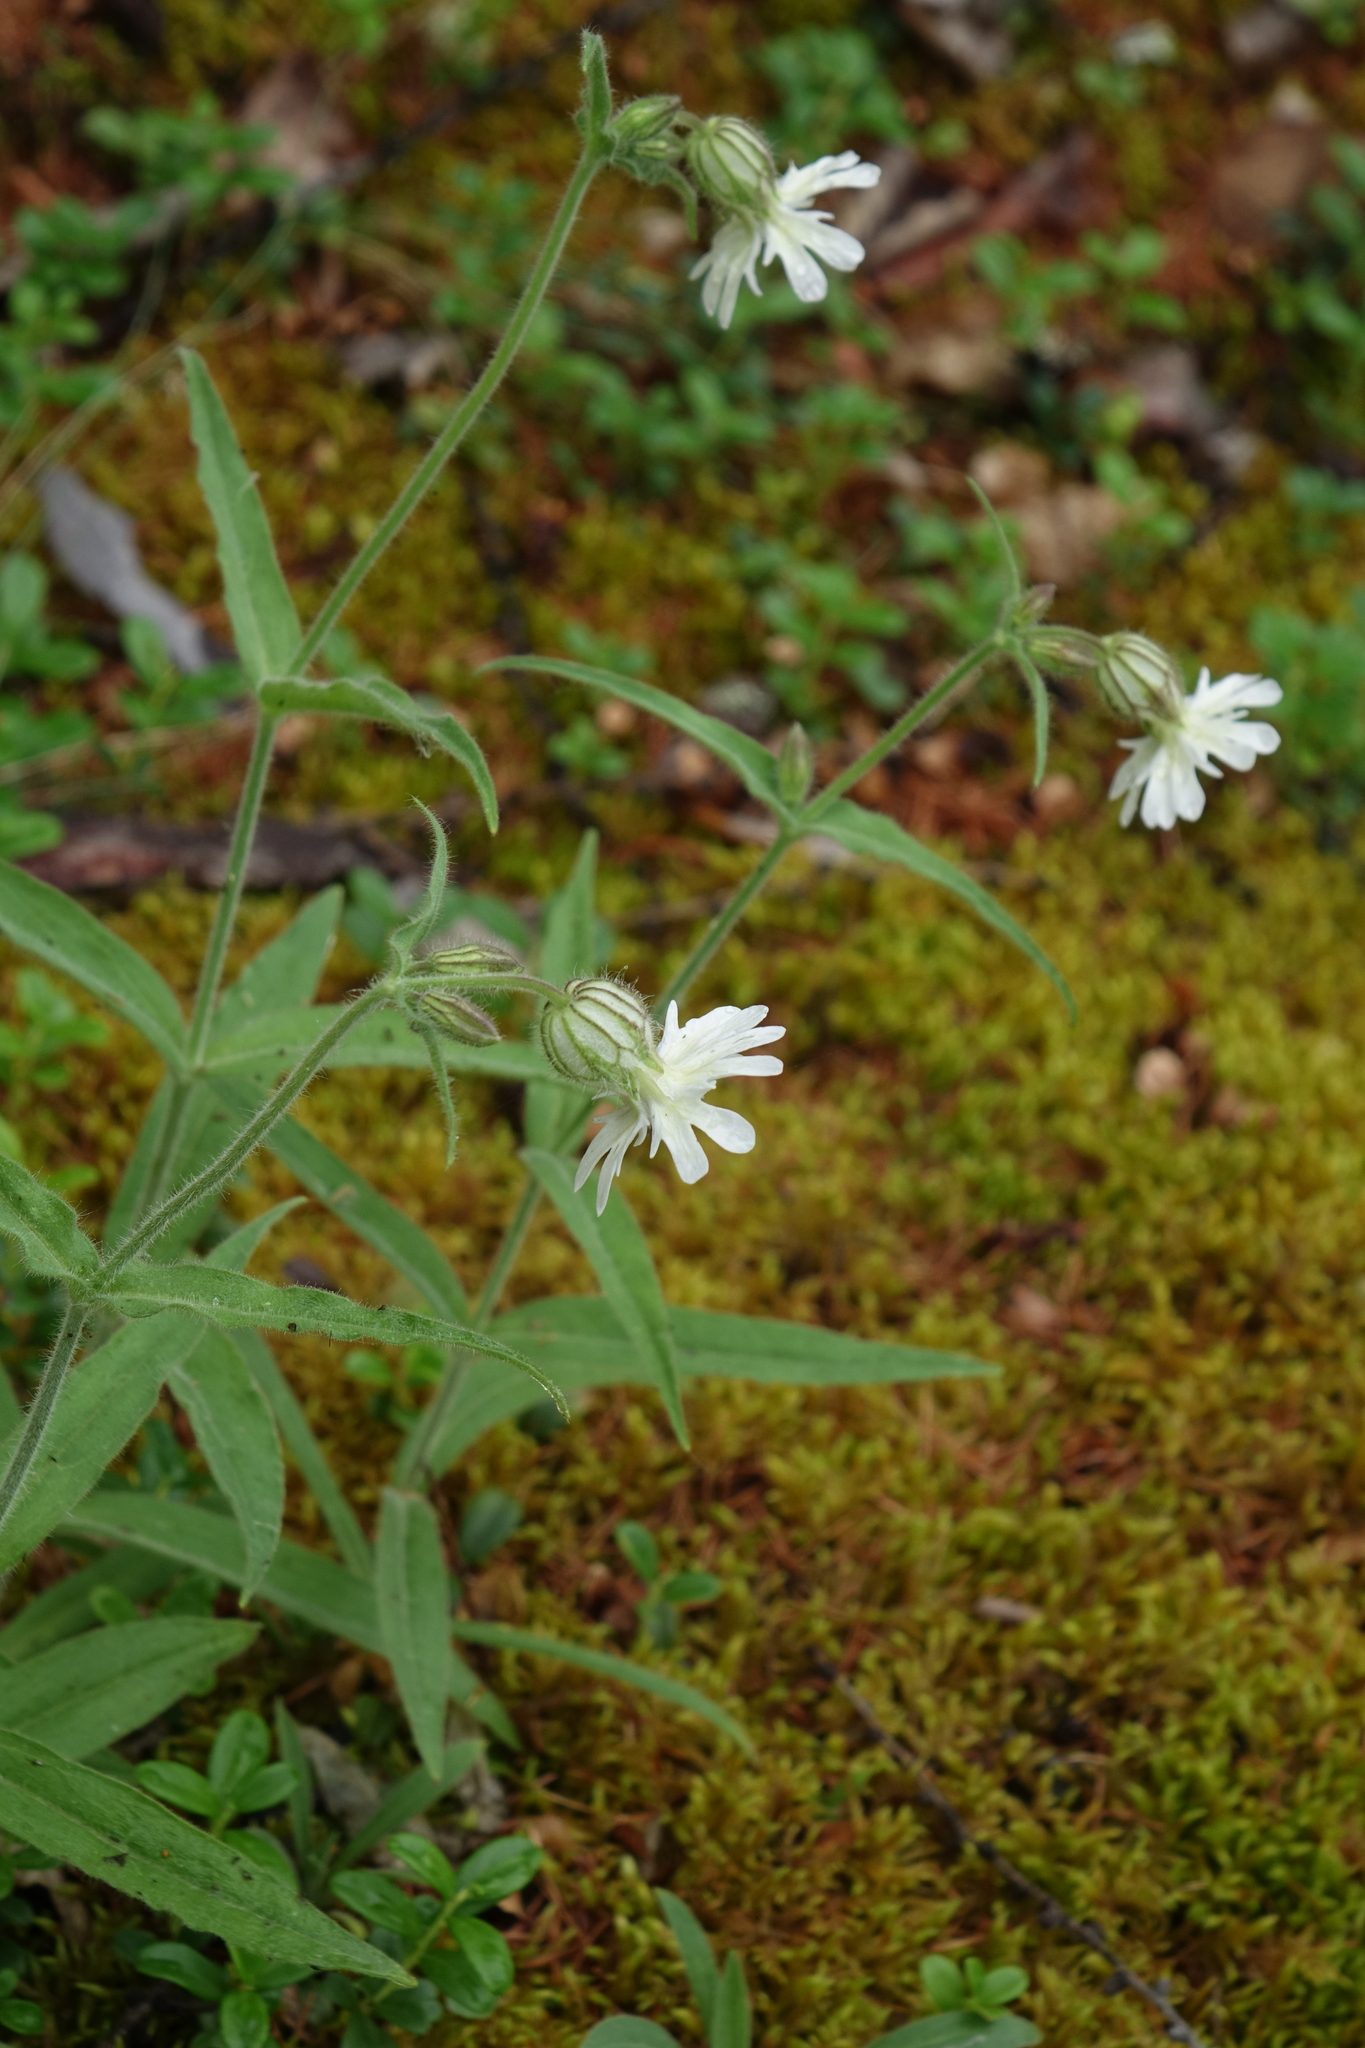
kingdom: Plantae
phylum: Tracheophyta
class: Magnoliopsida
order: Caryophyllales
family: Caryophyllaceae
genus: Silene
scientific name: Silene latifolia
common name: White campion
